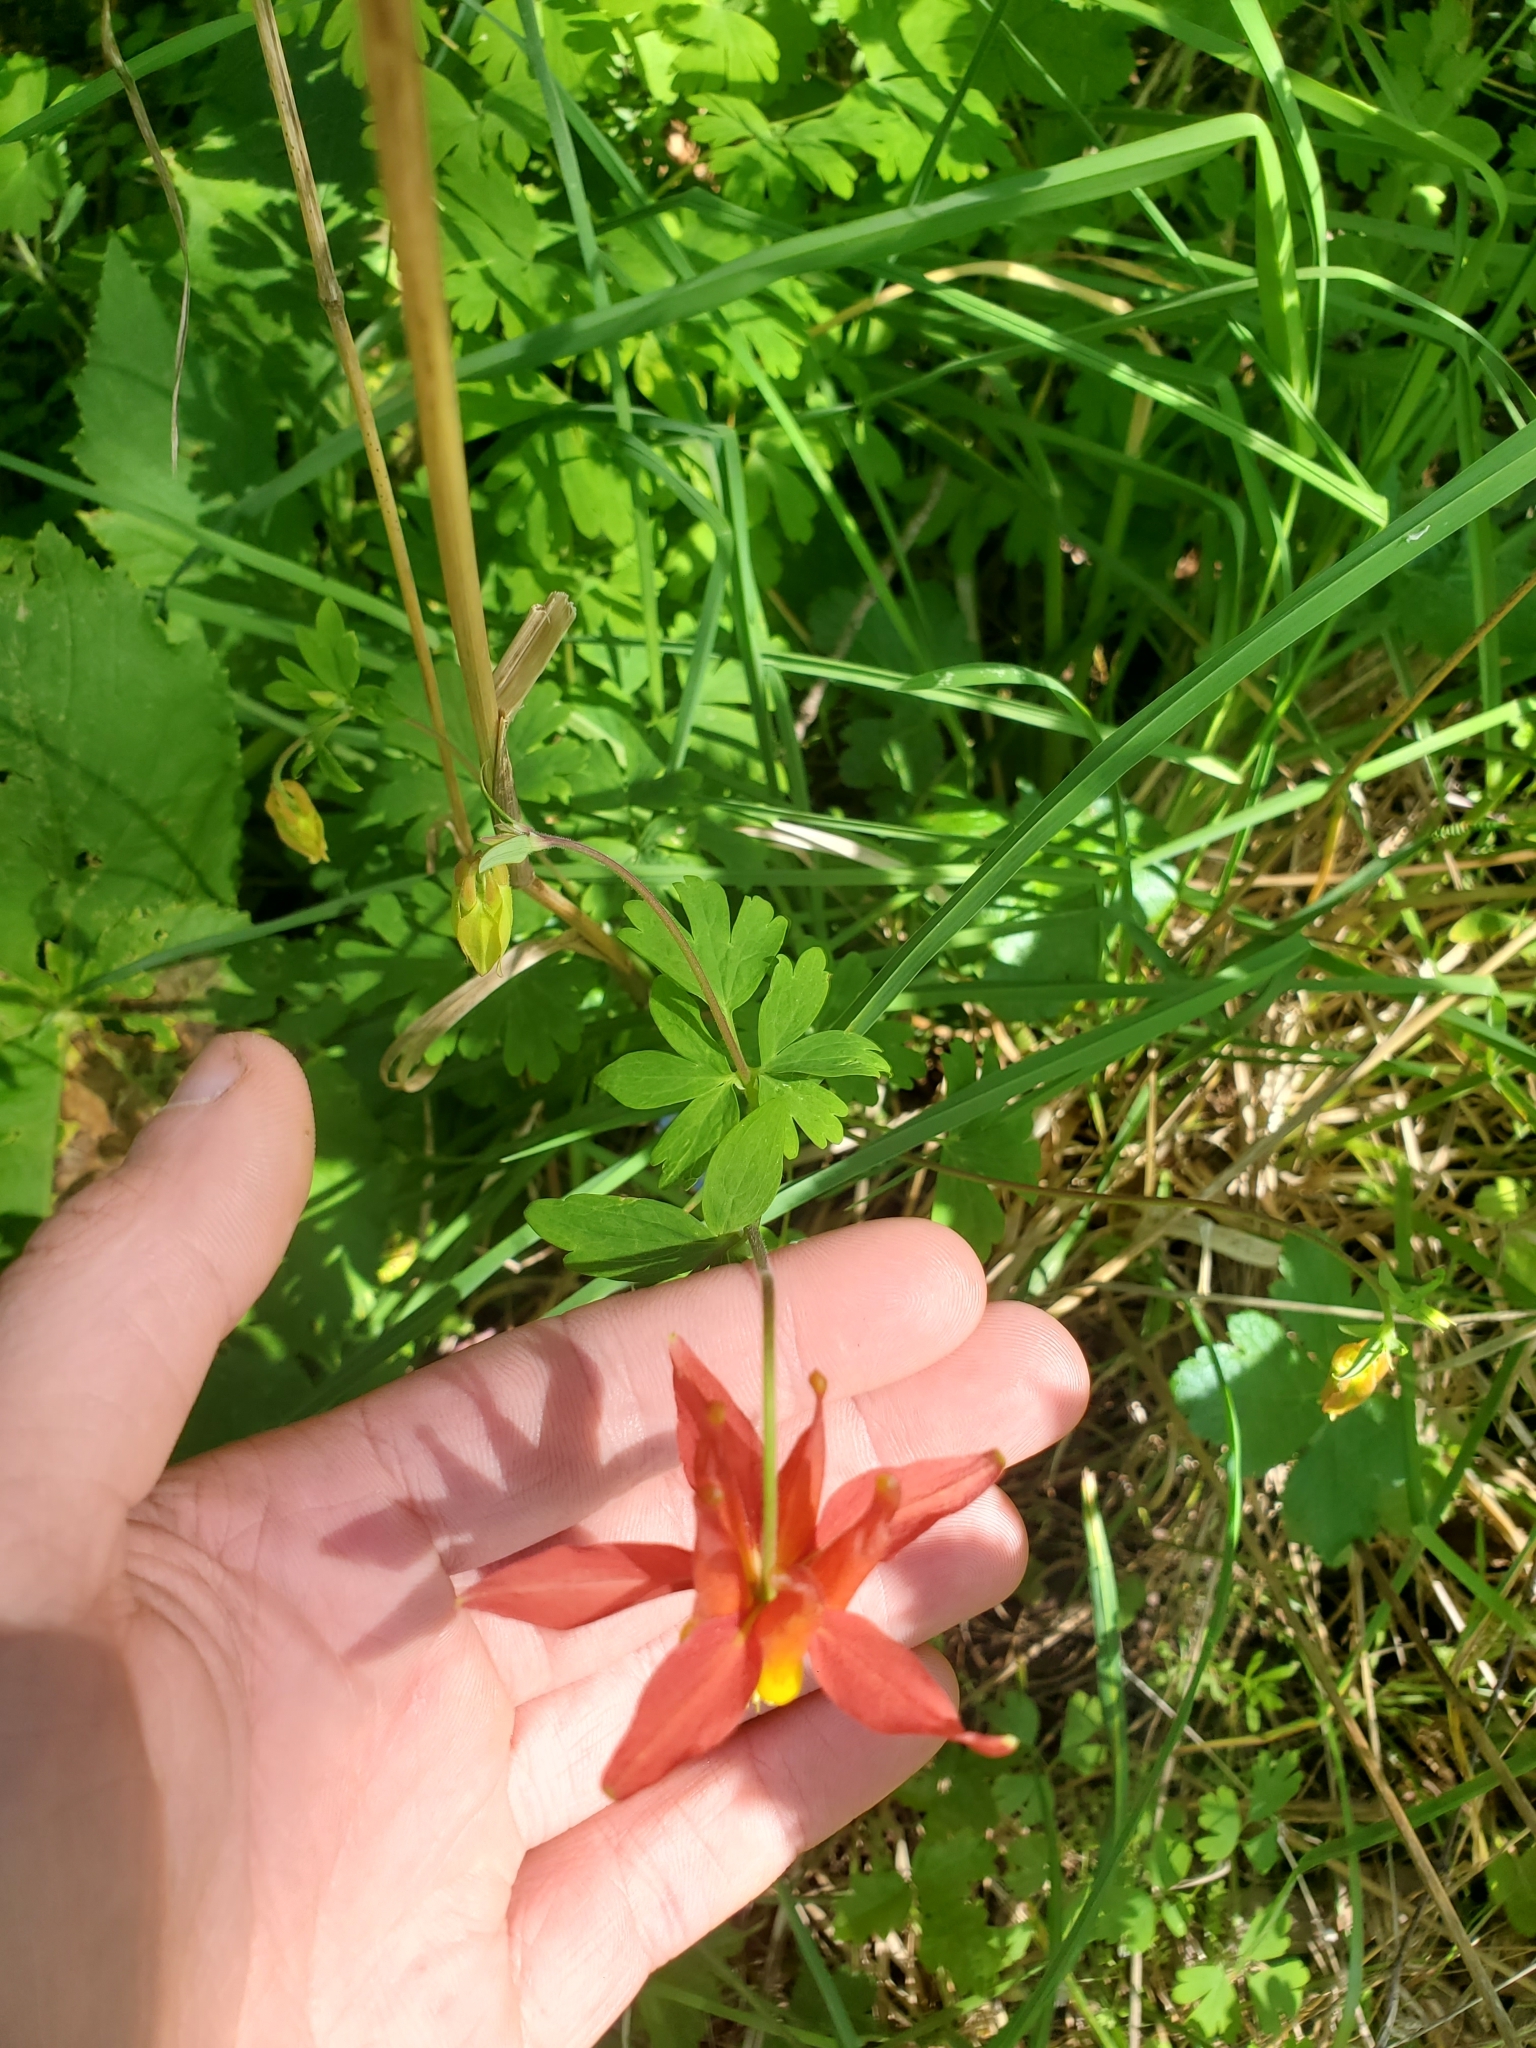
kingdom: Plantae
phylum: Tracheophyta
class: Magnoliopsida
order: Ranunculales
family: Ranunculaceae
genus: Aquilegia
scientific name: Aquilegia formosa
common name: Sitka columbine
